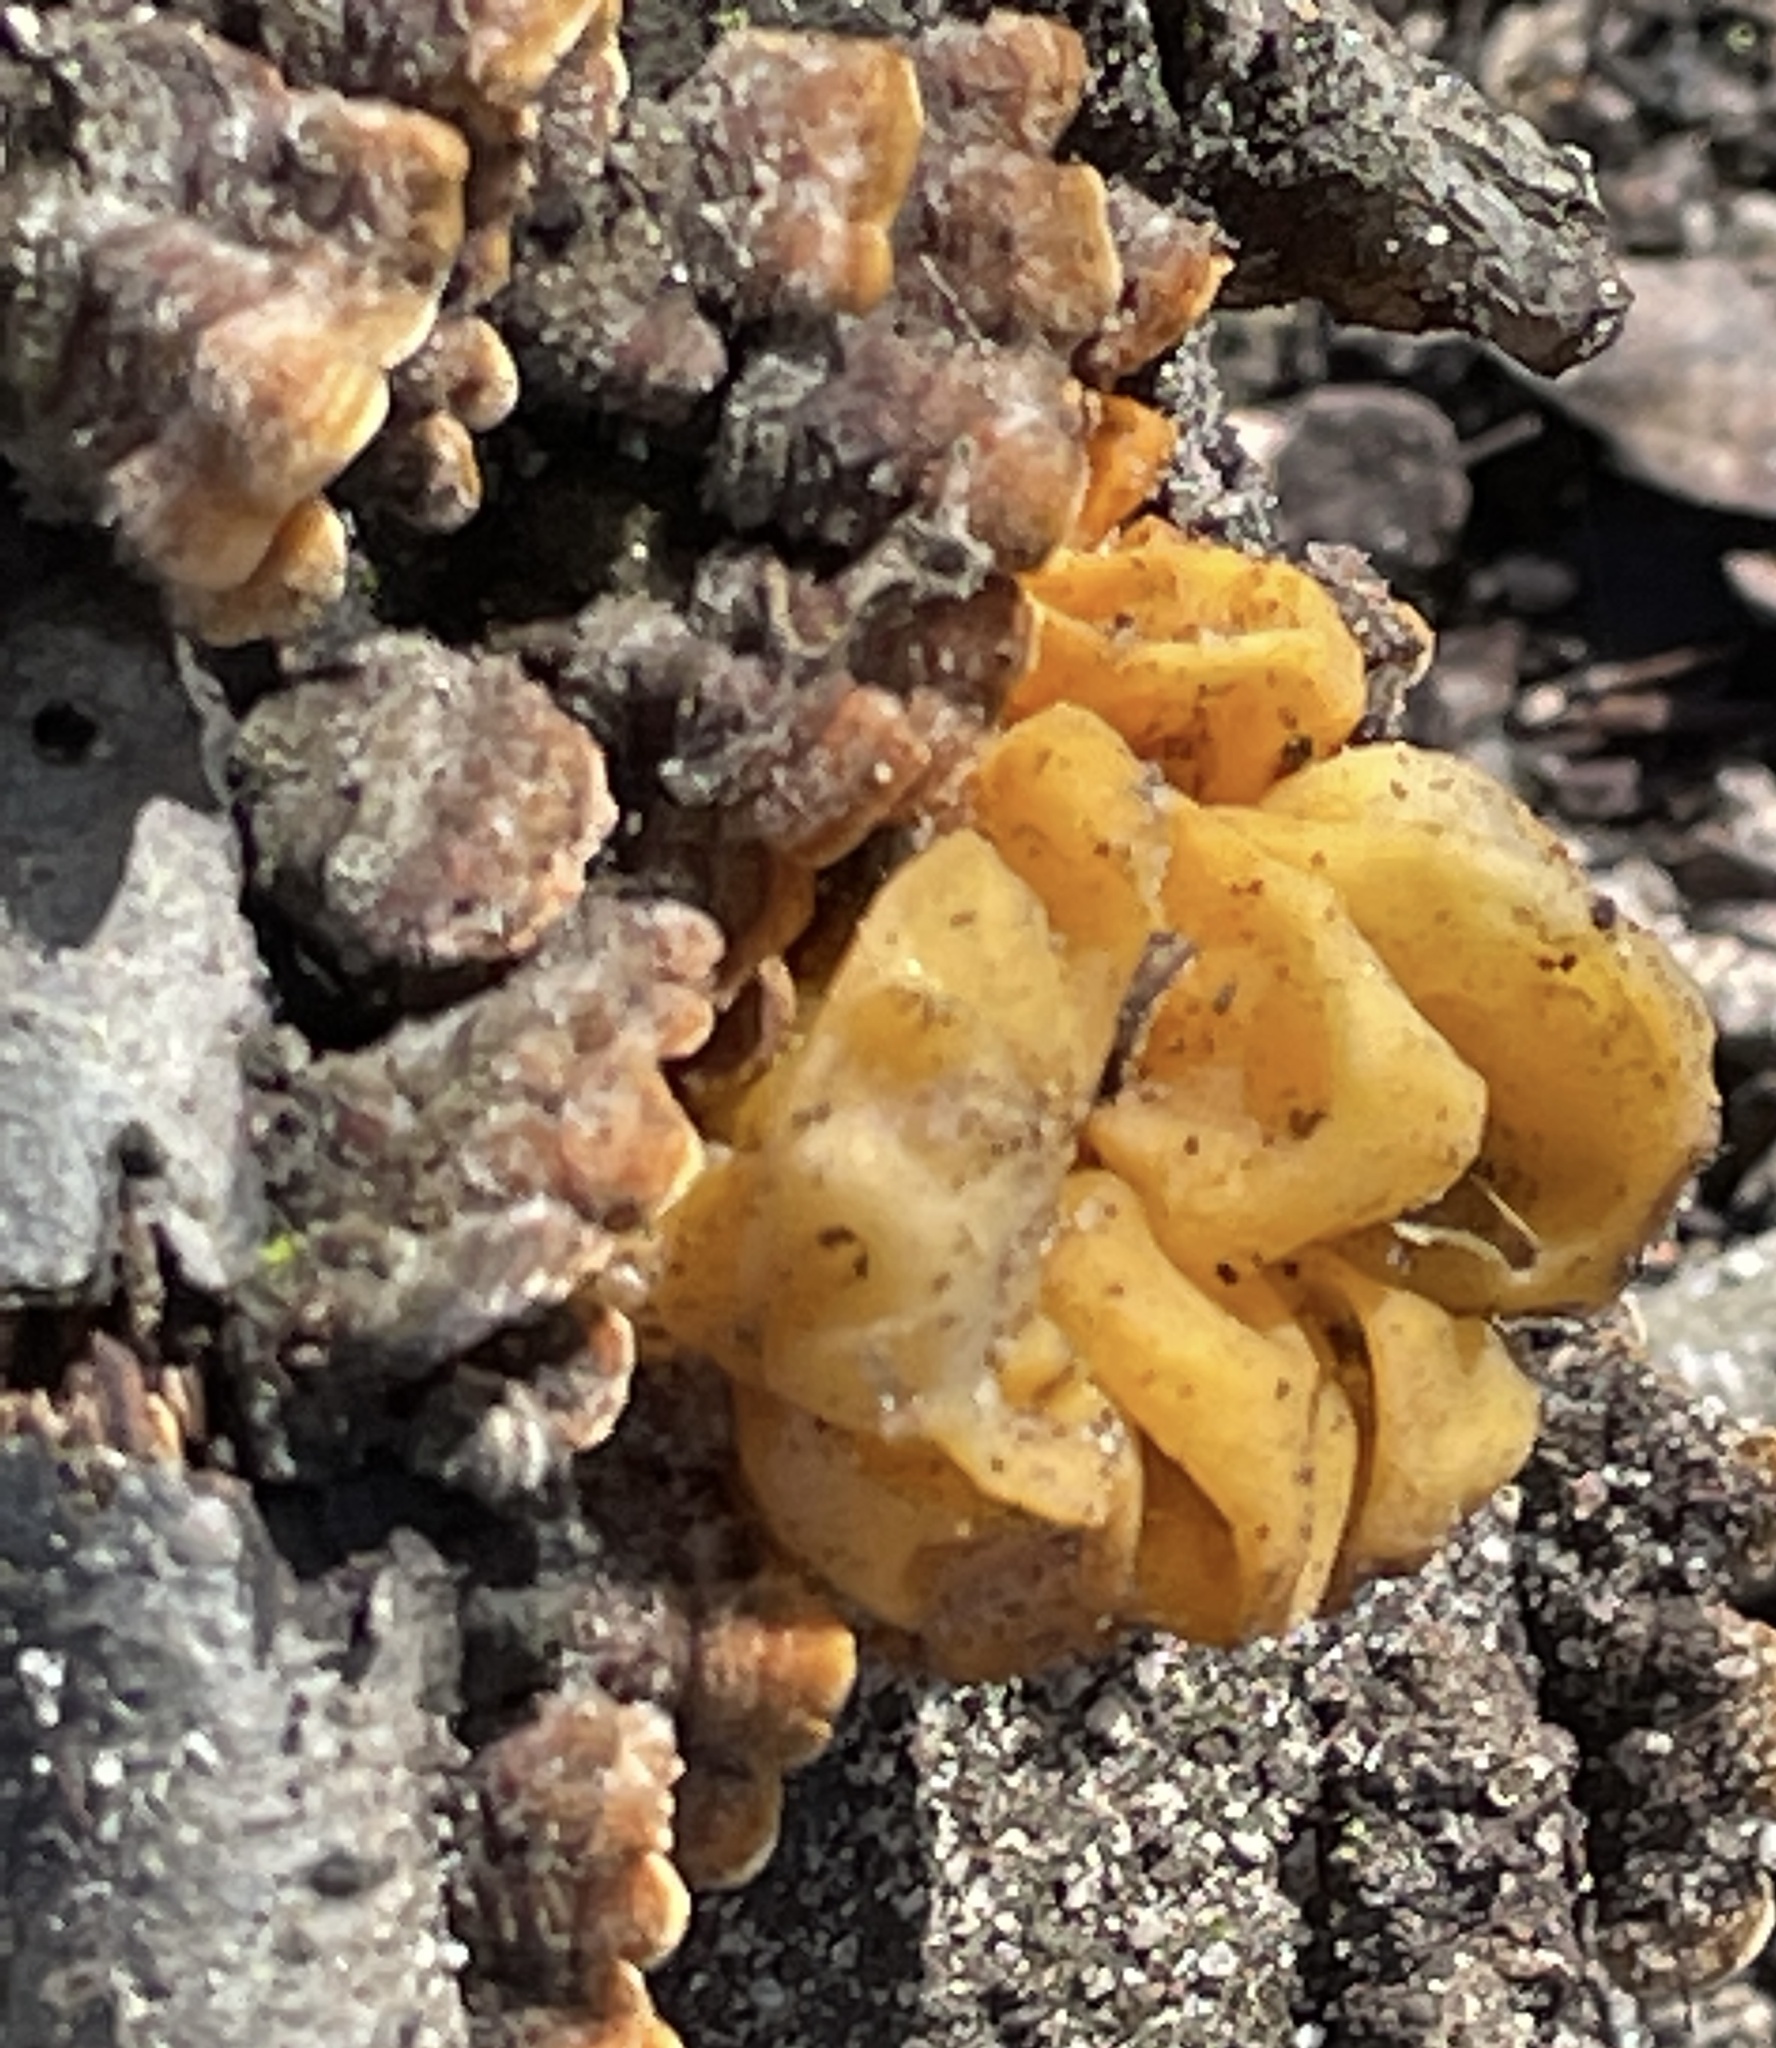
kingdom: Fungi
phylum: Basidiomycota
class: Tremellomycetes
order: Tremellales
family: Naemateliaceae
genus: Naematelia
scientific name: Naematelia aurantia
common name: Golden ear
